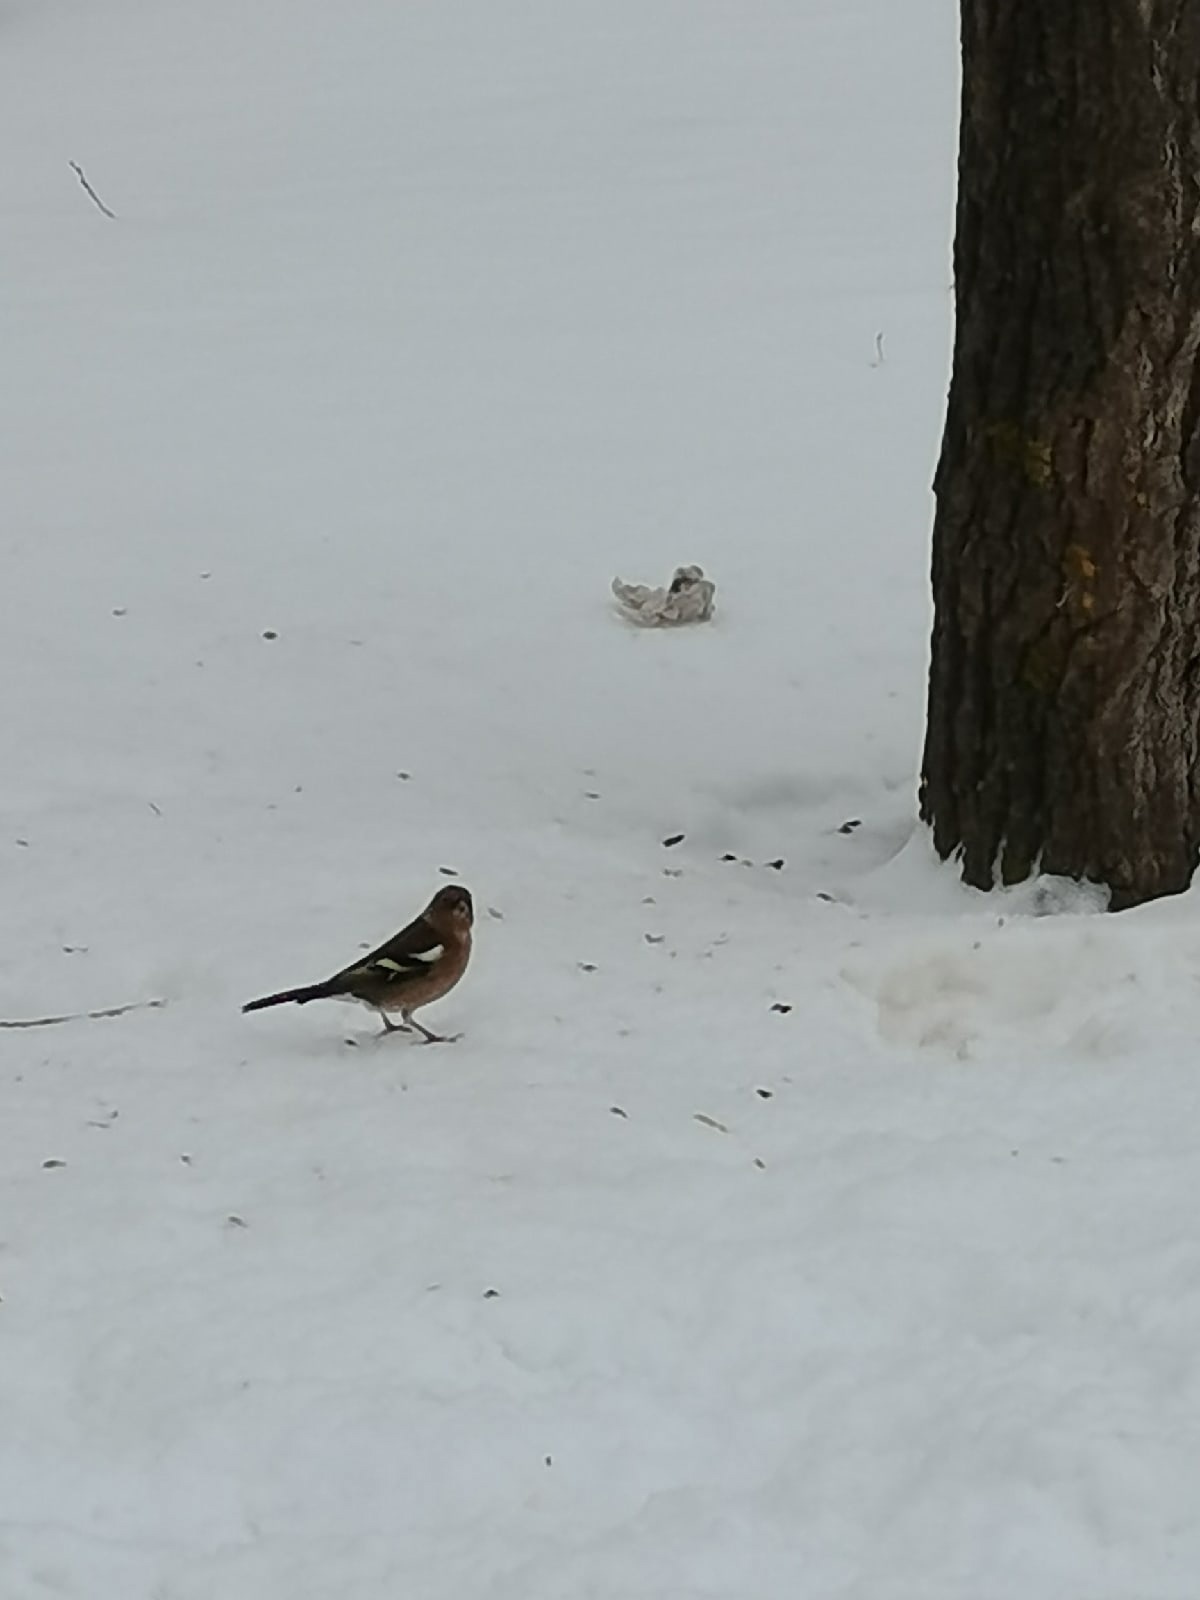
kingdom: Animalia
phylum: Chordata
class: Aves
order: Passeriformes
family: Fringillidae
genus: Fringilla
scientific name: Fringilla coelebs
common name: Common chaffinch
